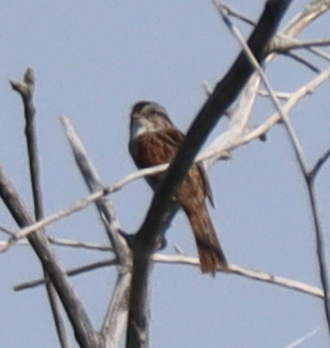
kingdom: Animalia
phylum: Chordata
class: Aves
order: Passeriformes
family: Passerellidae
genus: Melospiza
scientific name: Melospiza georgiana
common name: Swamp sparrow
